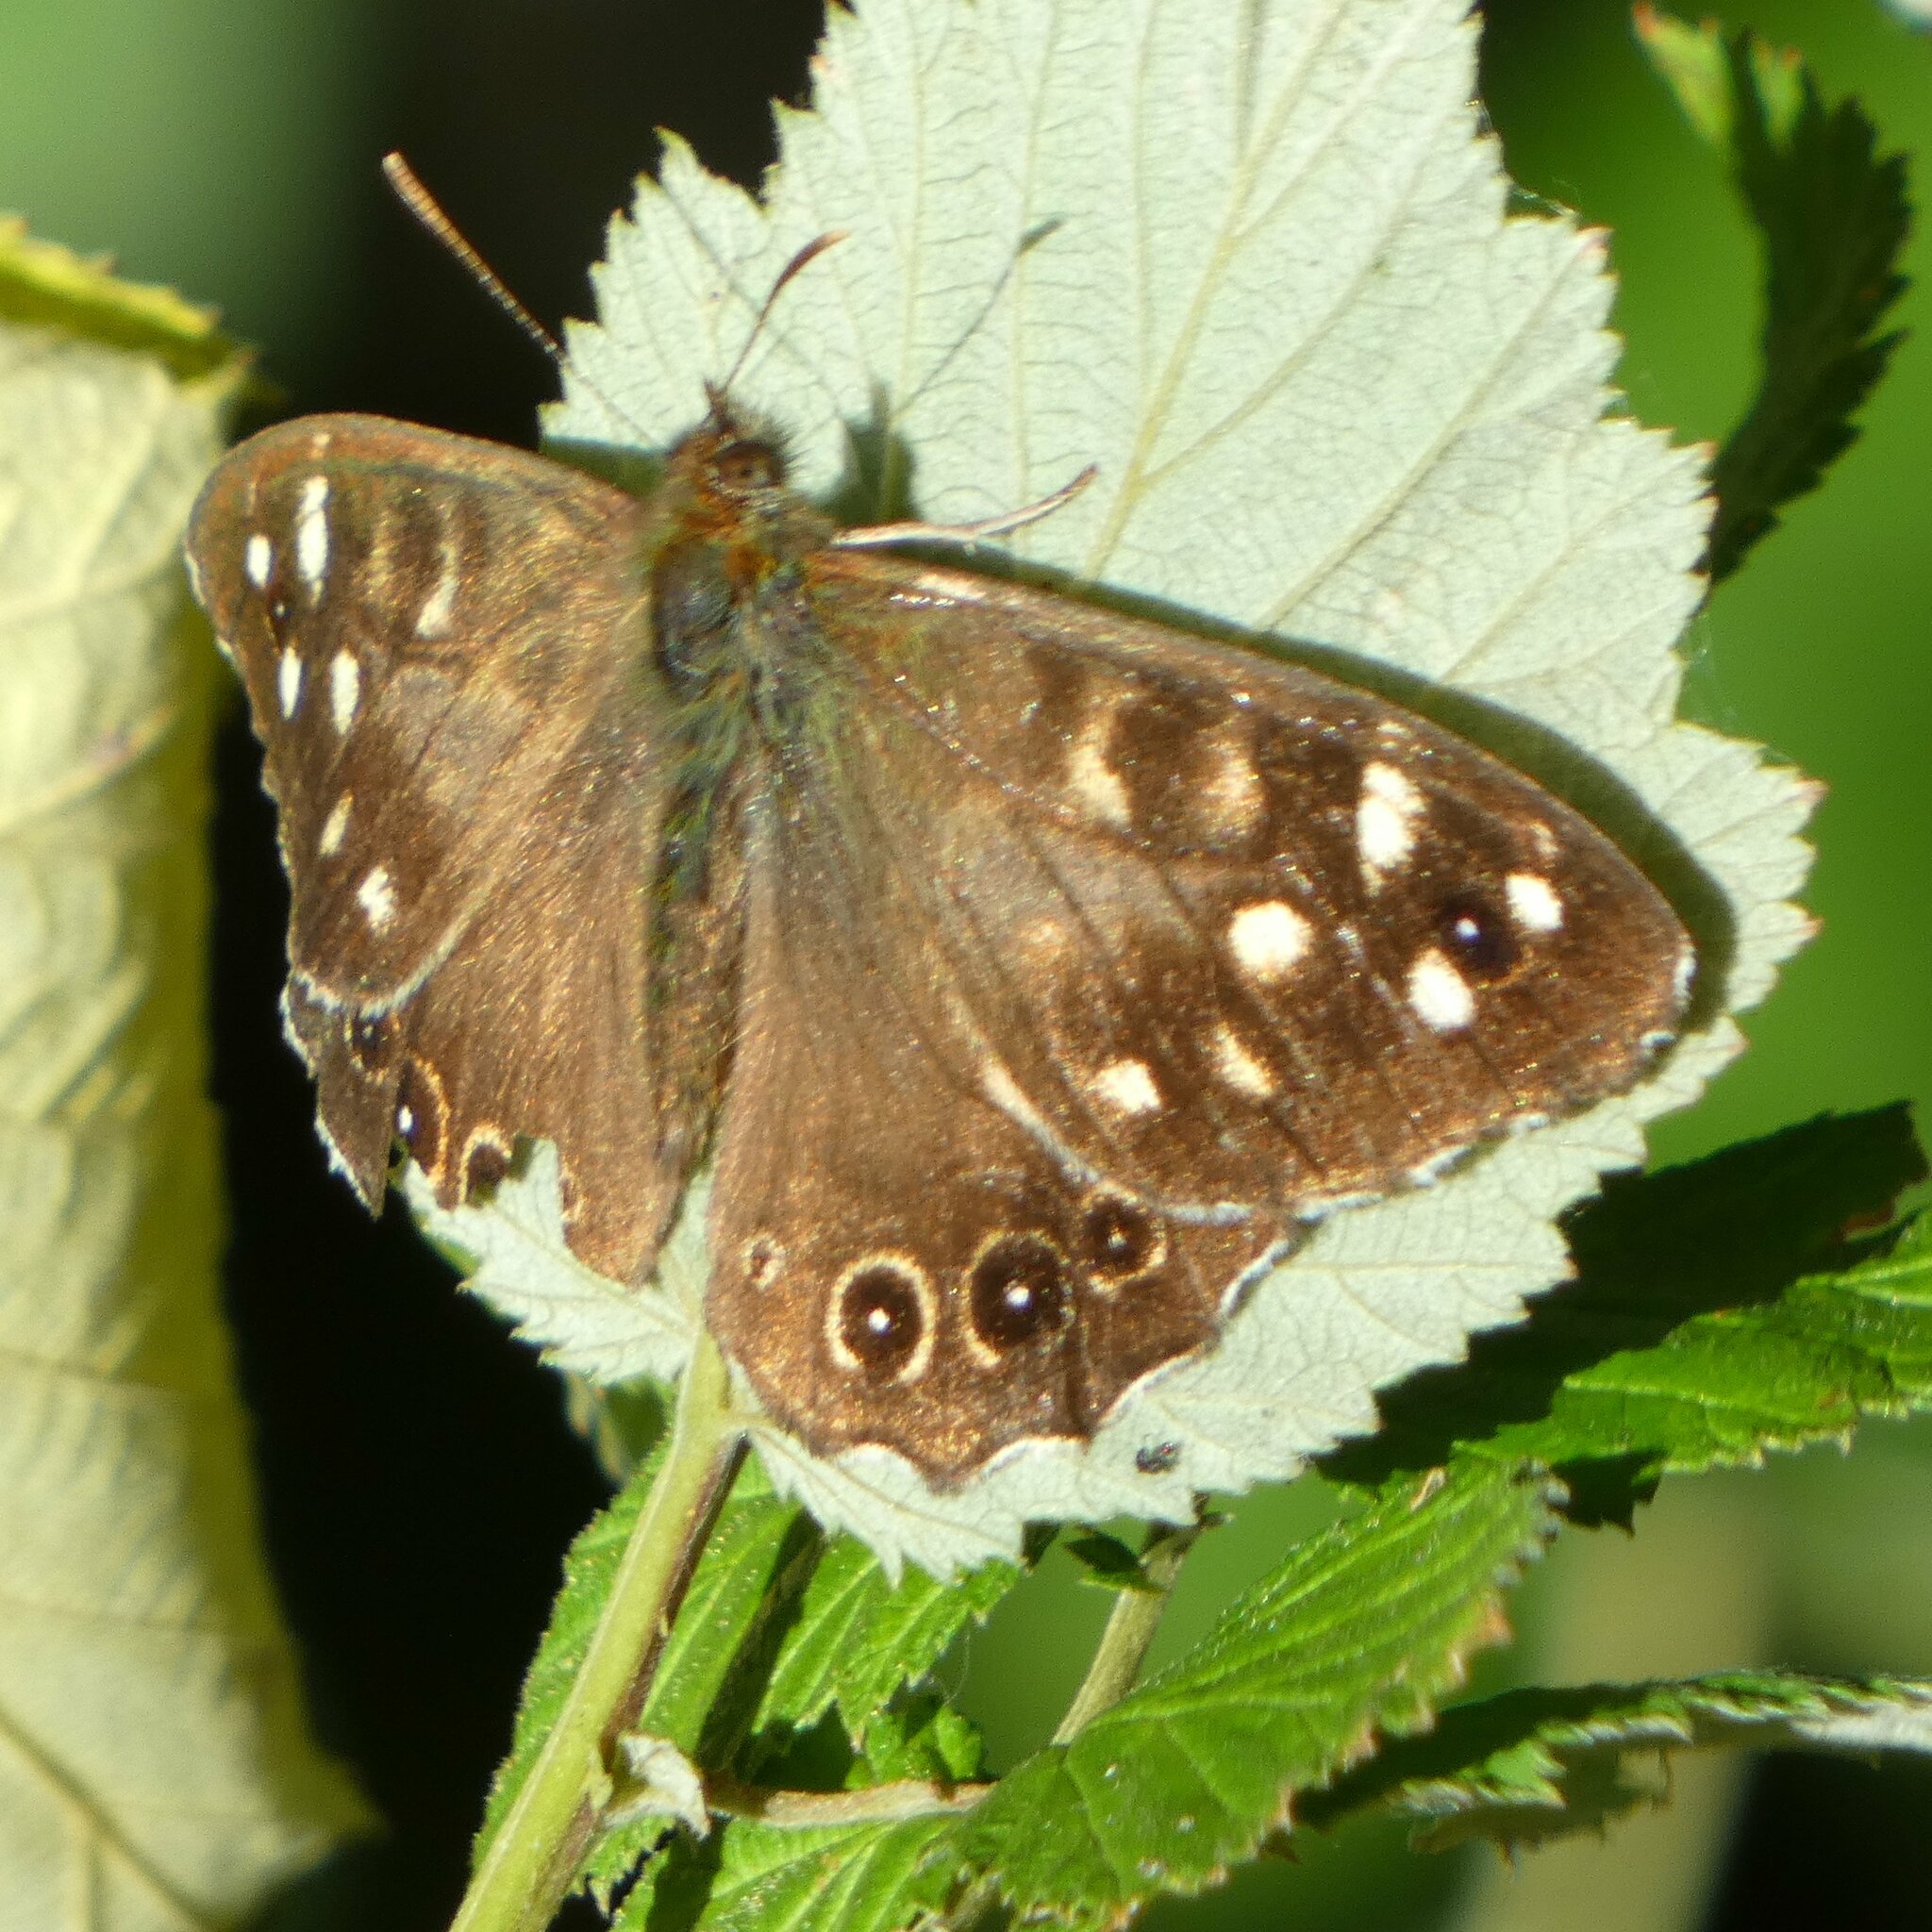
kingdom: Animalia
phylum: Arthropoda
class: Insecta
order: Lepidoptera
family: Nymphalidae
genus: Pararge
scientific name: Pararge aegeria
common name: Speckled wood
